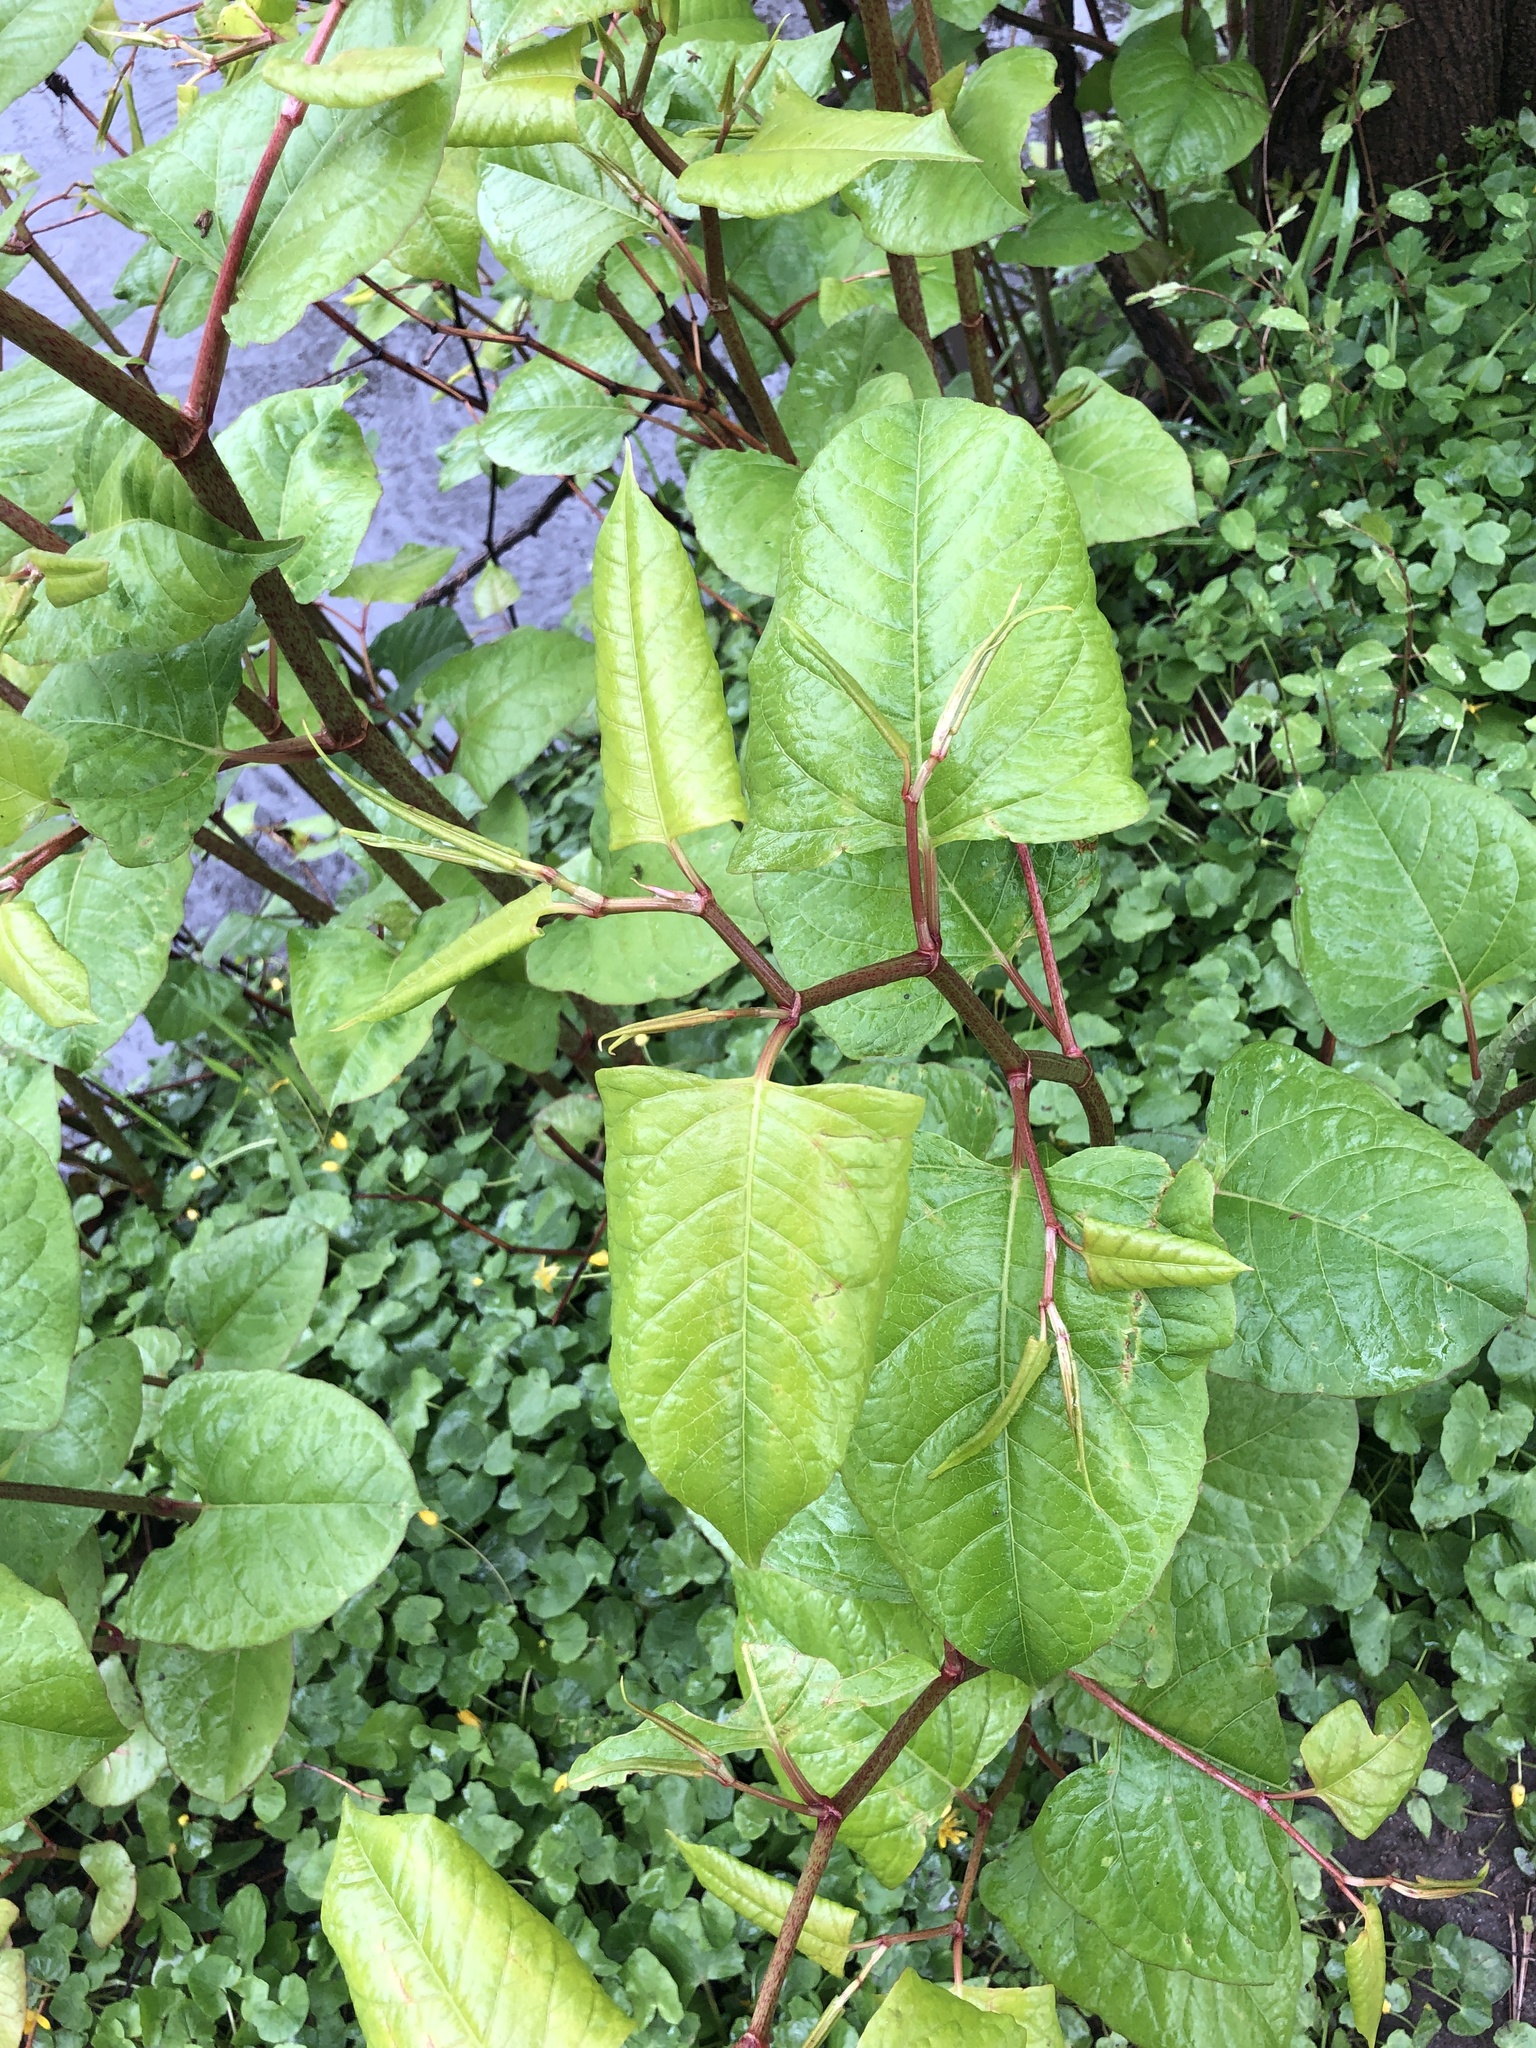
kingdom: Plantae
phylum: Tracheophyta
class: Magnoliopsida
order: Caryophyllales
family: Polygonaceae
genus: Reynoutria
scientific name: Reynoutria japonica
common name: Japanese knotweed
